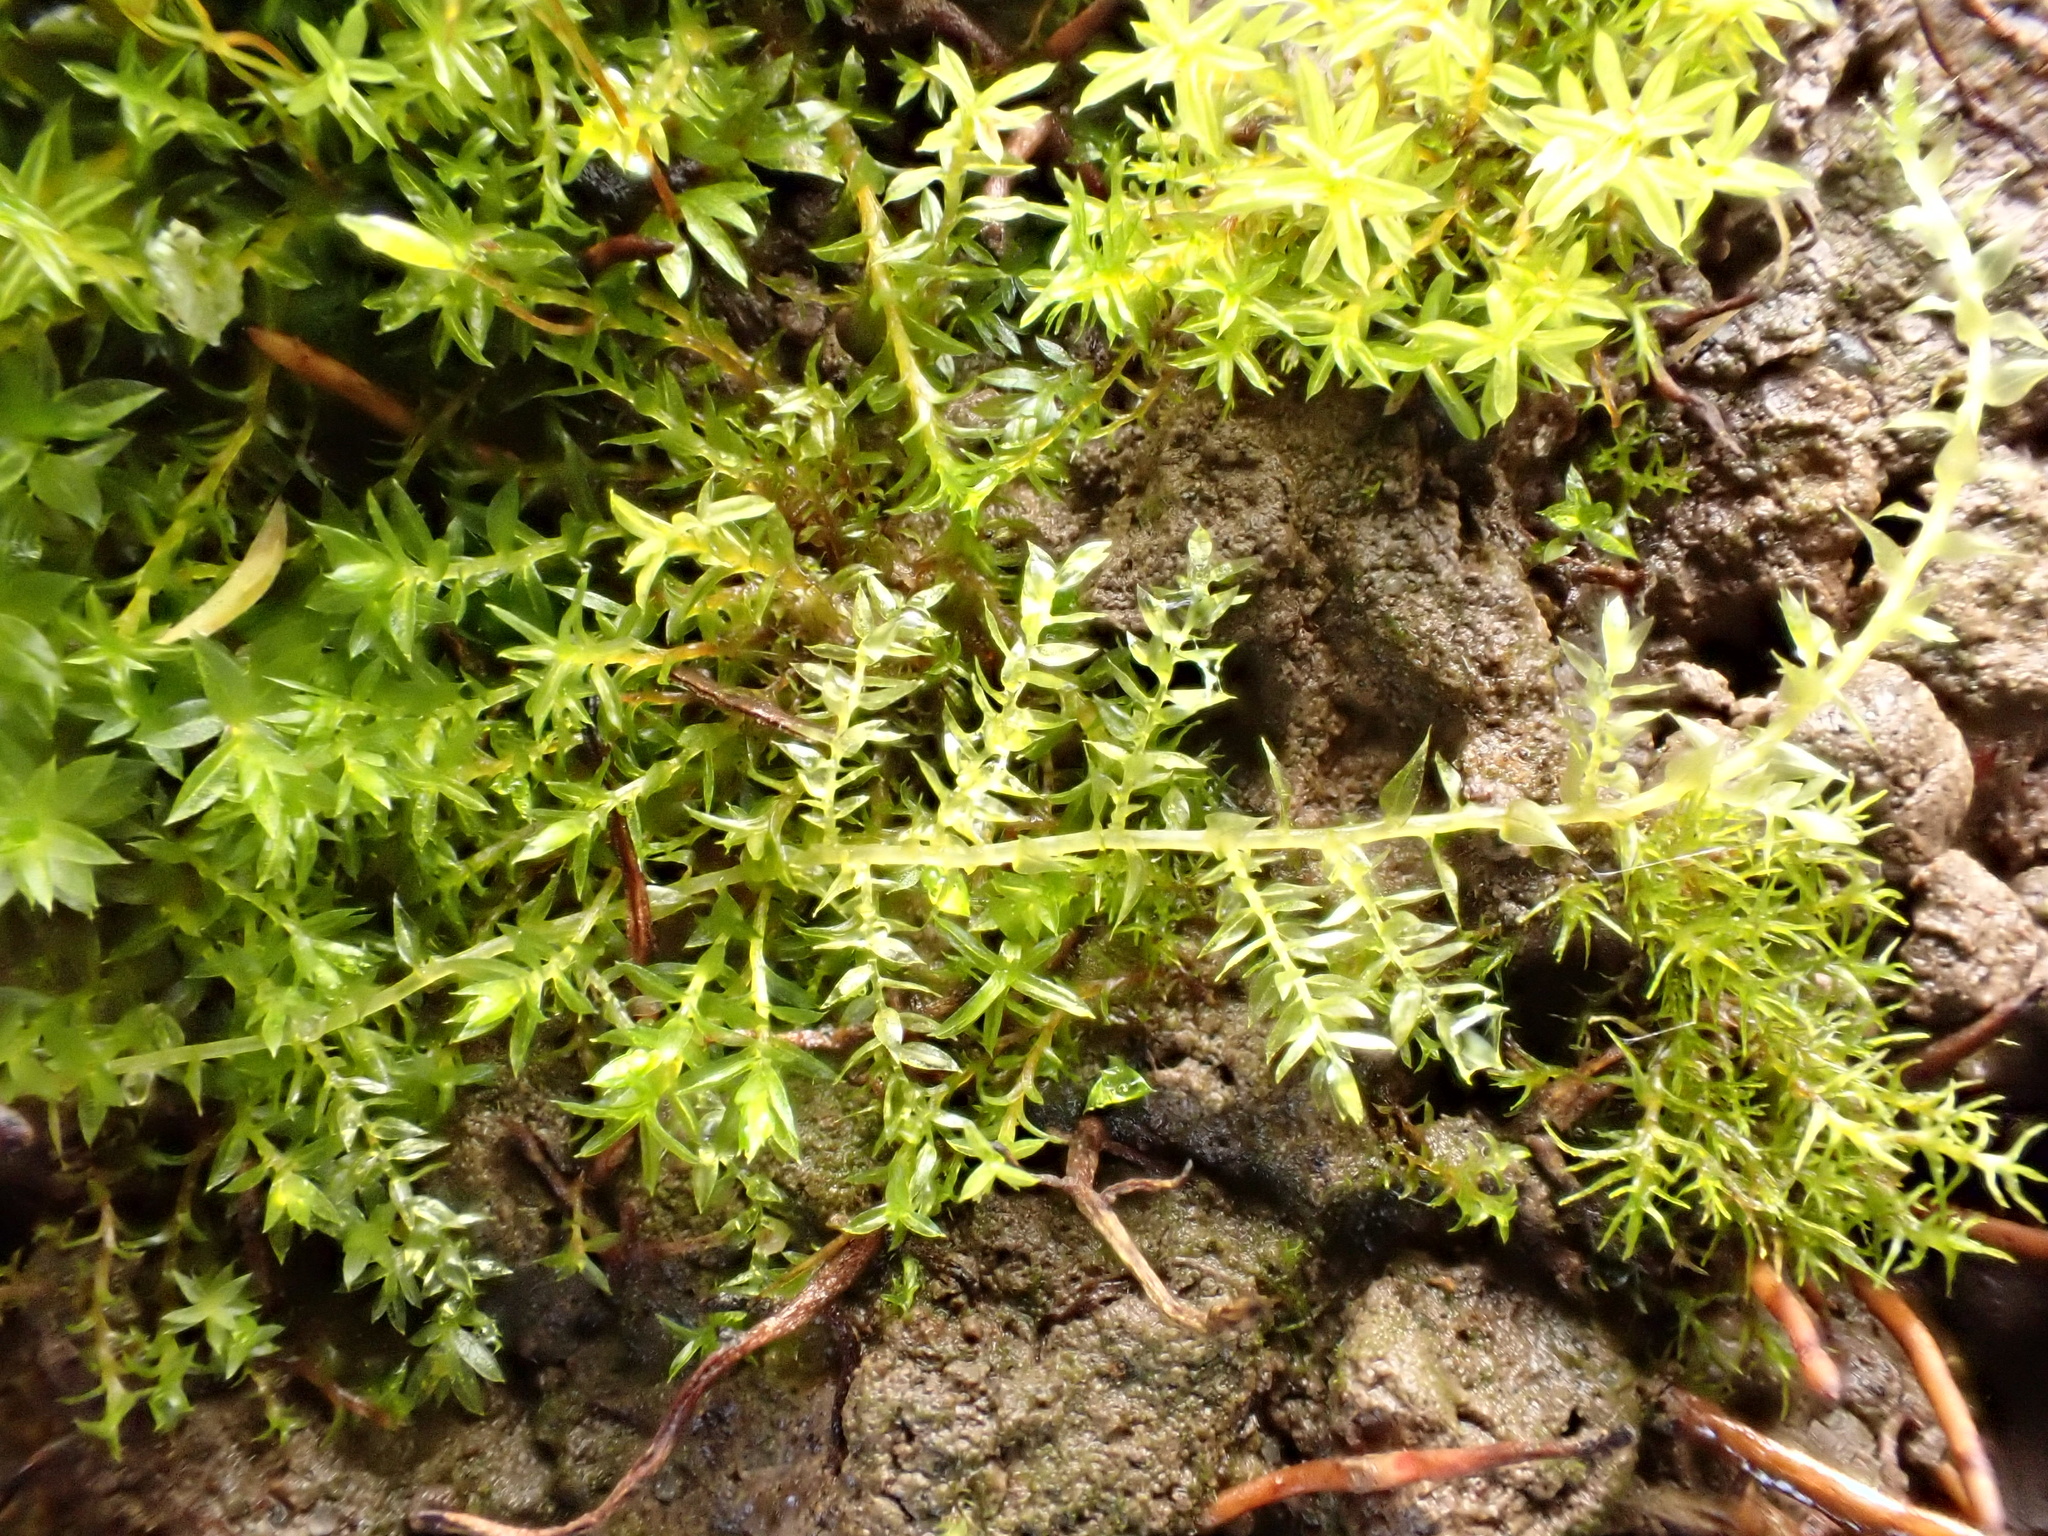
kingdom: Plantae
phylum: Bryophyta
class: Bryopsida
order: Hypnales
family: Brachytheciaceae
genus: Oxyrrhynchium
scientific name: Oxyrrhynchium hians
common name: Spreading beaked moss
